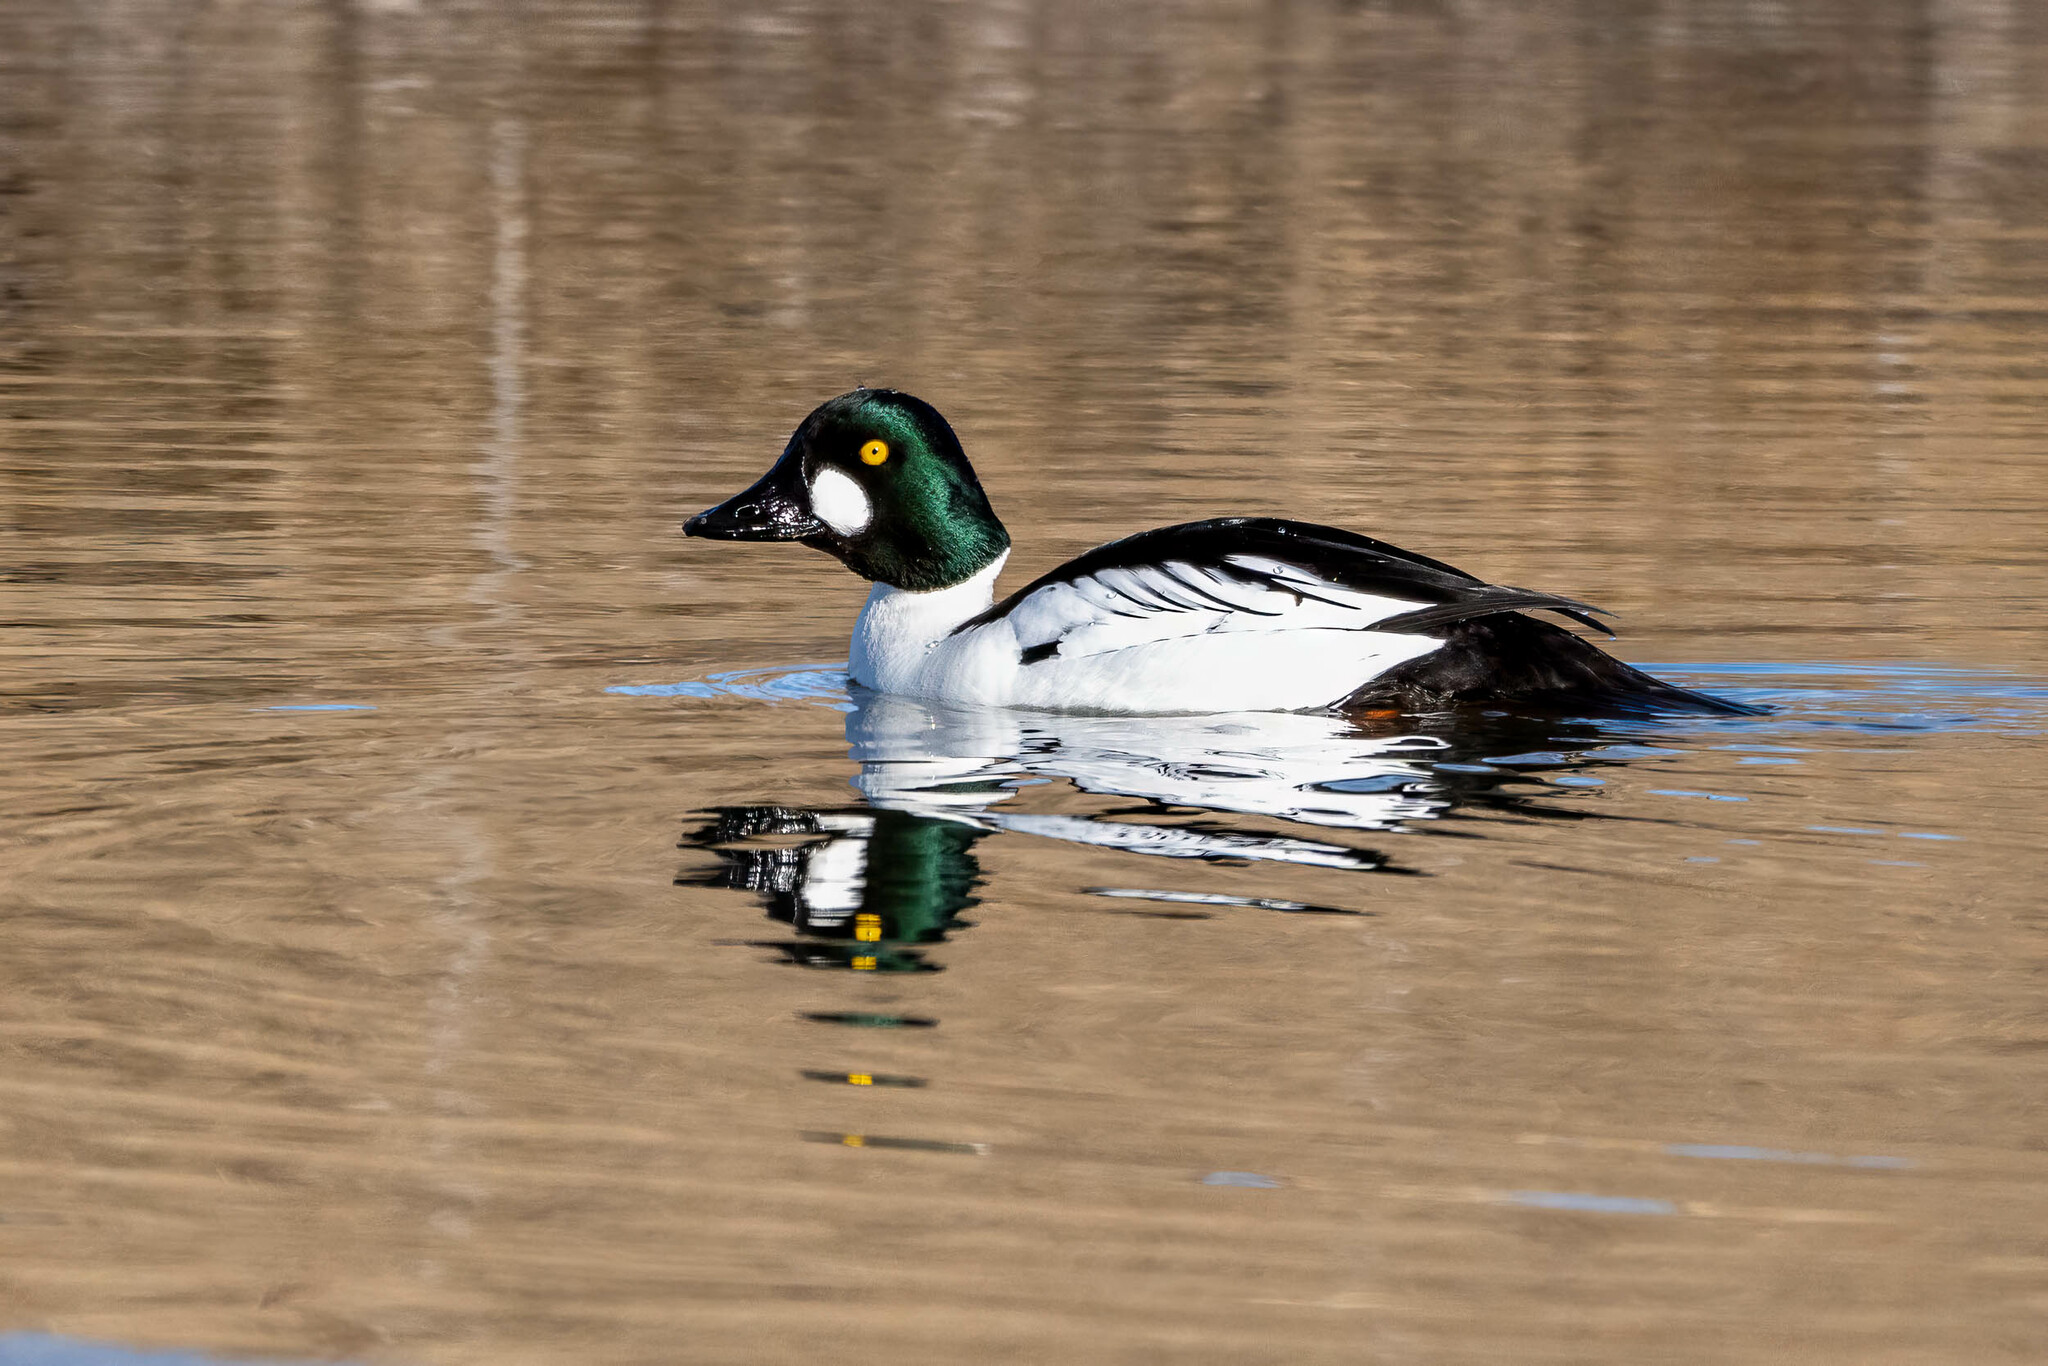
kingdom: Animalia
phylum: Chordata
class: Aves
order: Anseriformes
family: Anatidae
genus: Bucephala
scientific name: Bucephala clangula
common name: Common goldeneye
